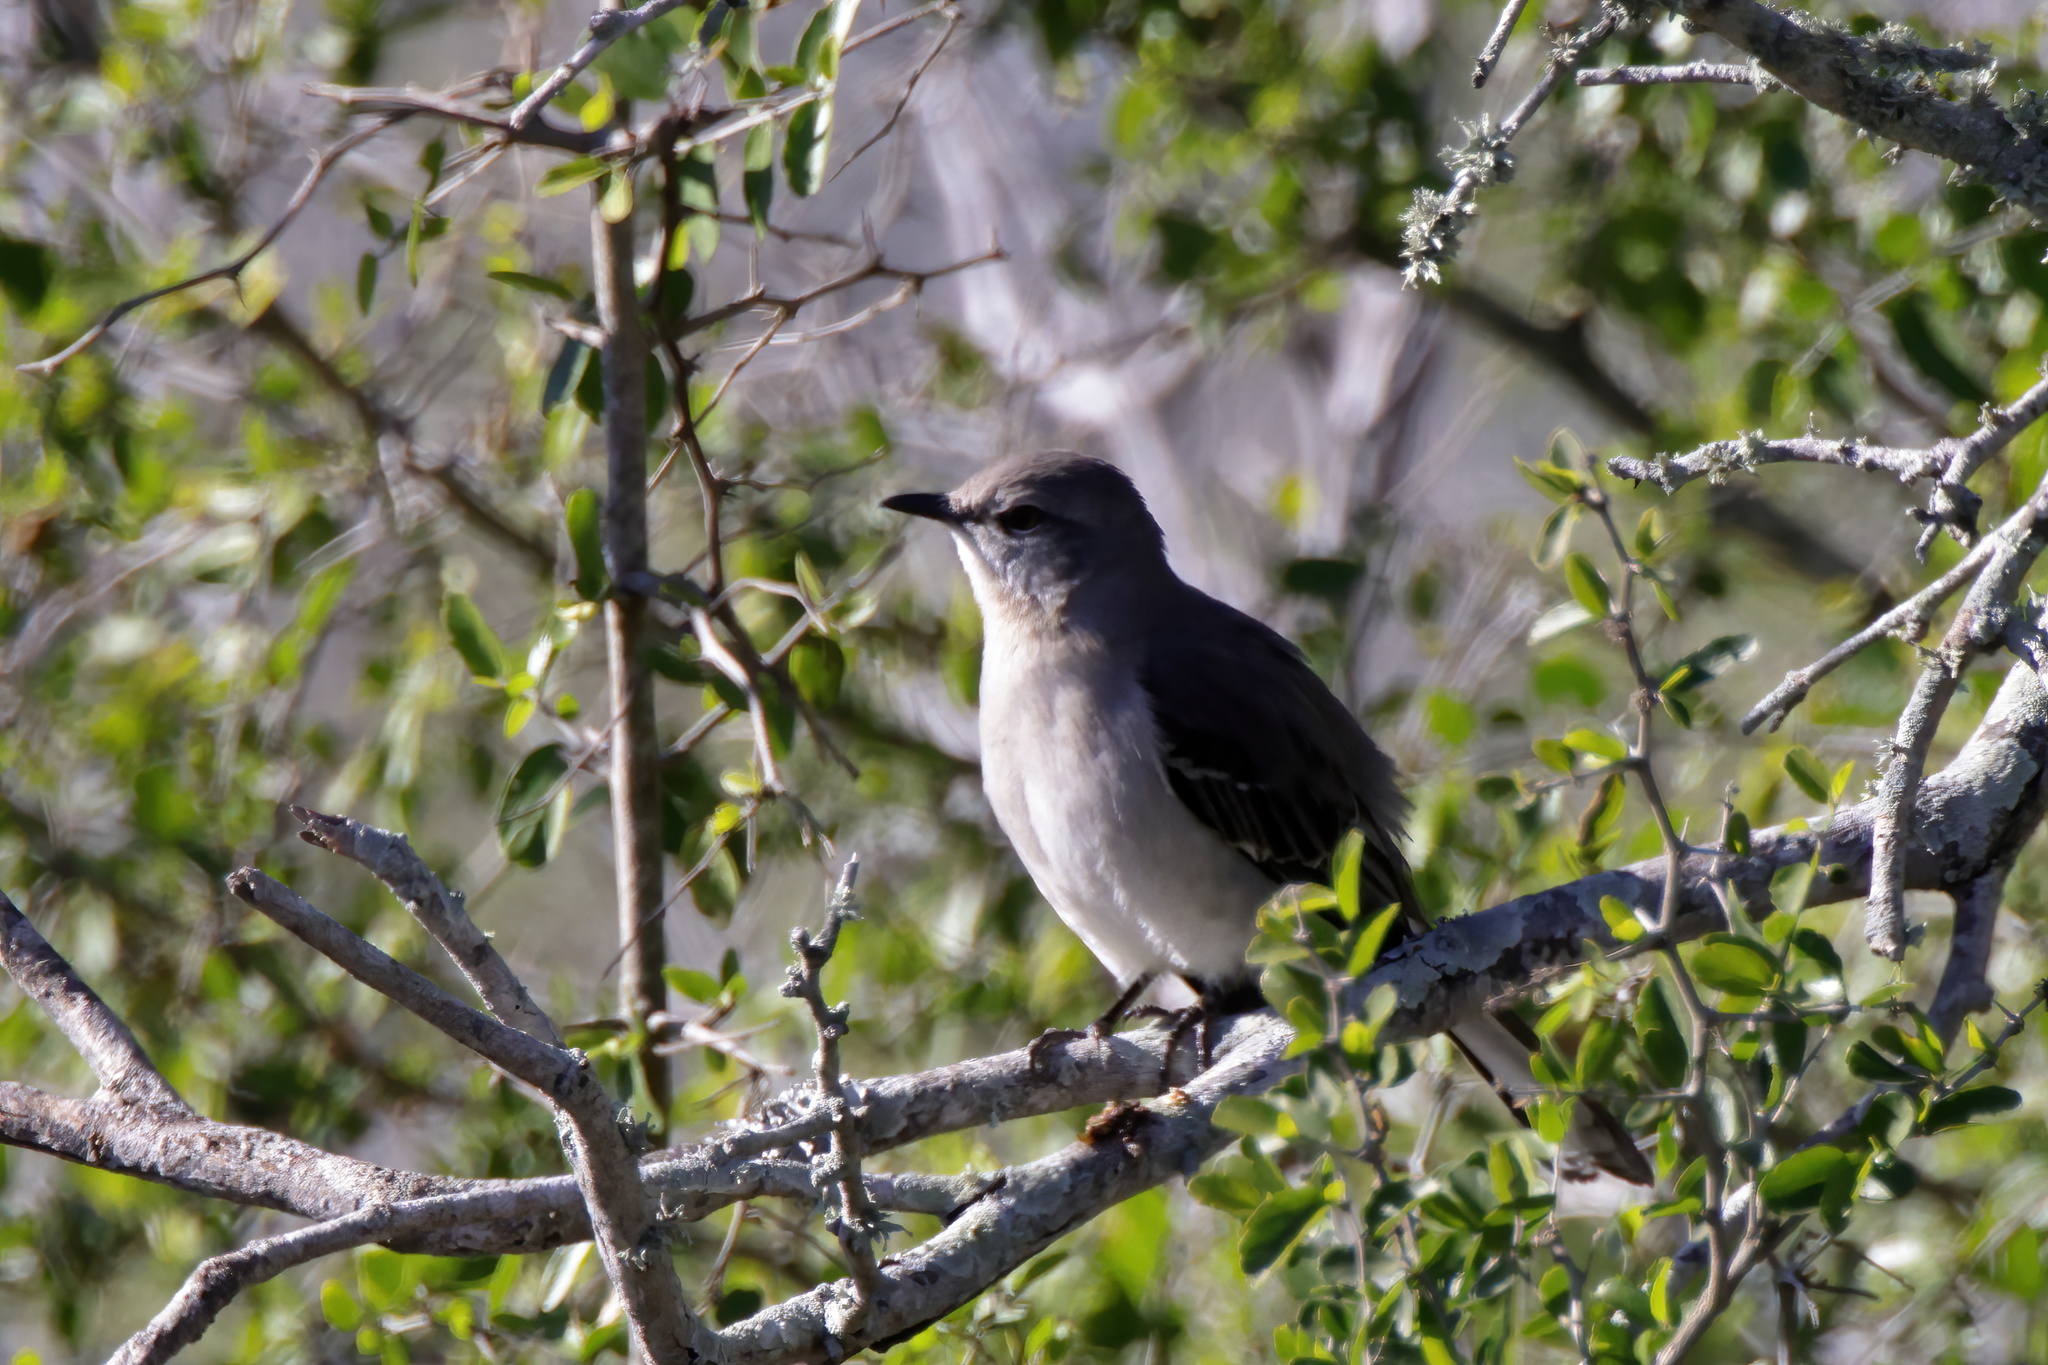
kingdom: Animalia
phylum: Chordata
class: Aves
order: Passeriformes
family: Mimidae
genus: Mimus
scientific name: Mimus polyglottos
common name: Northern mockingbird
